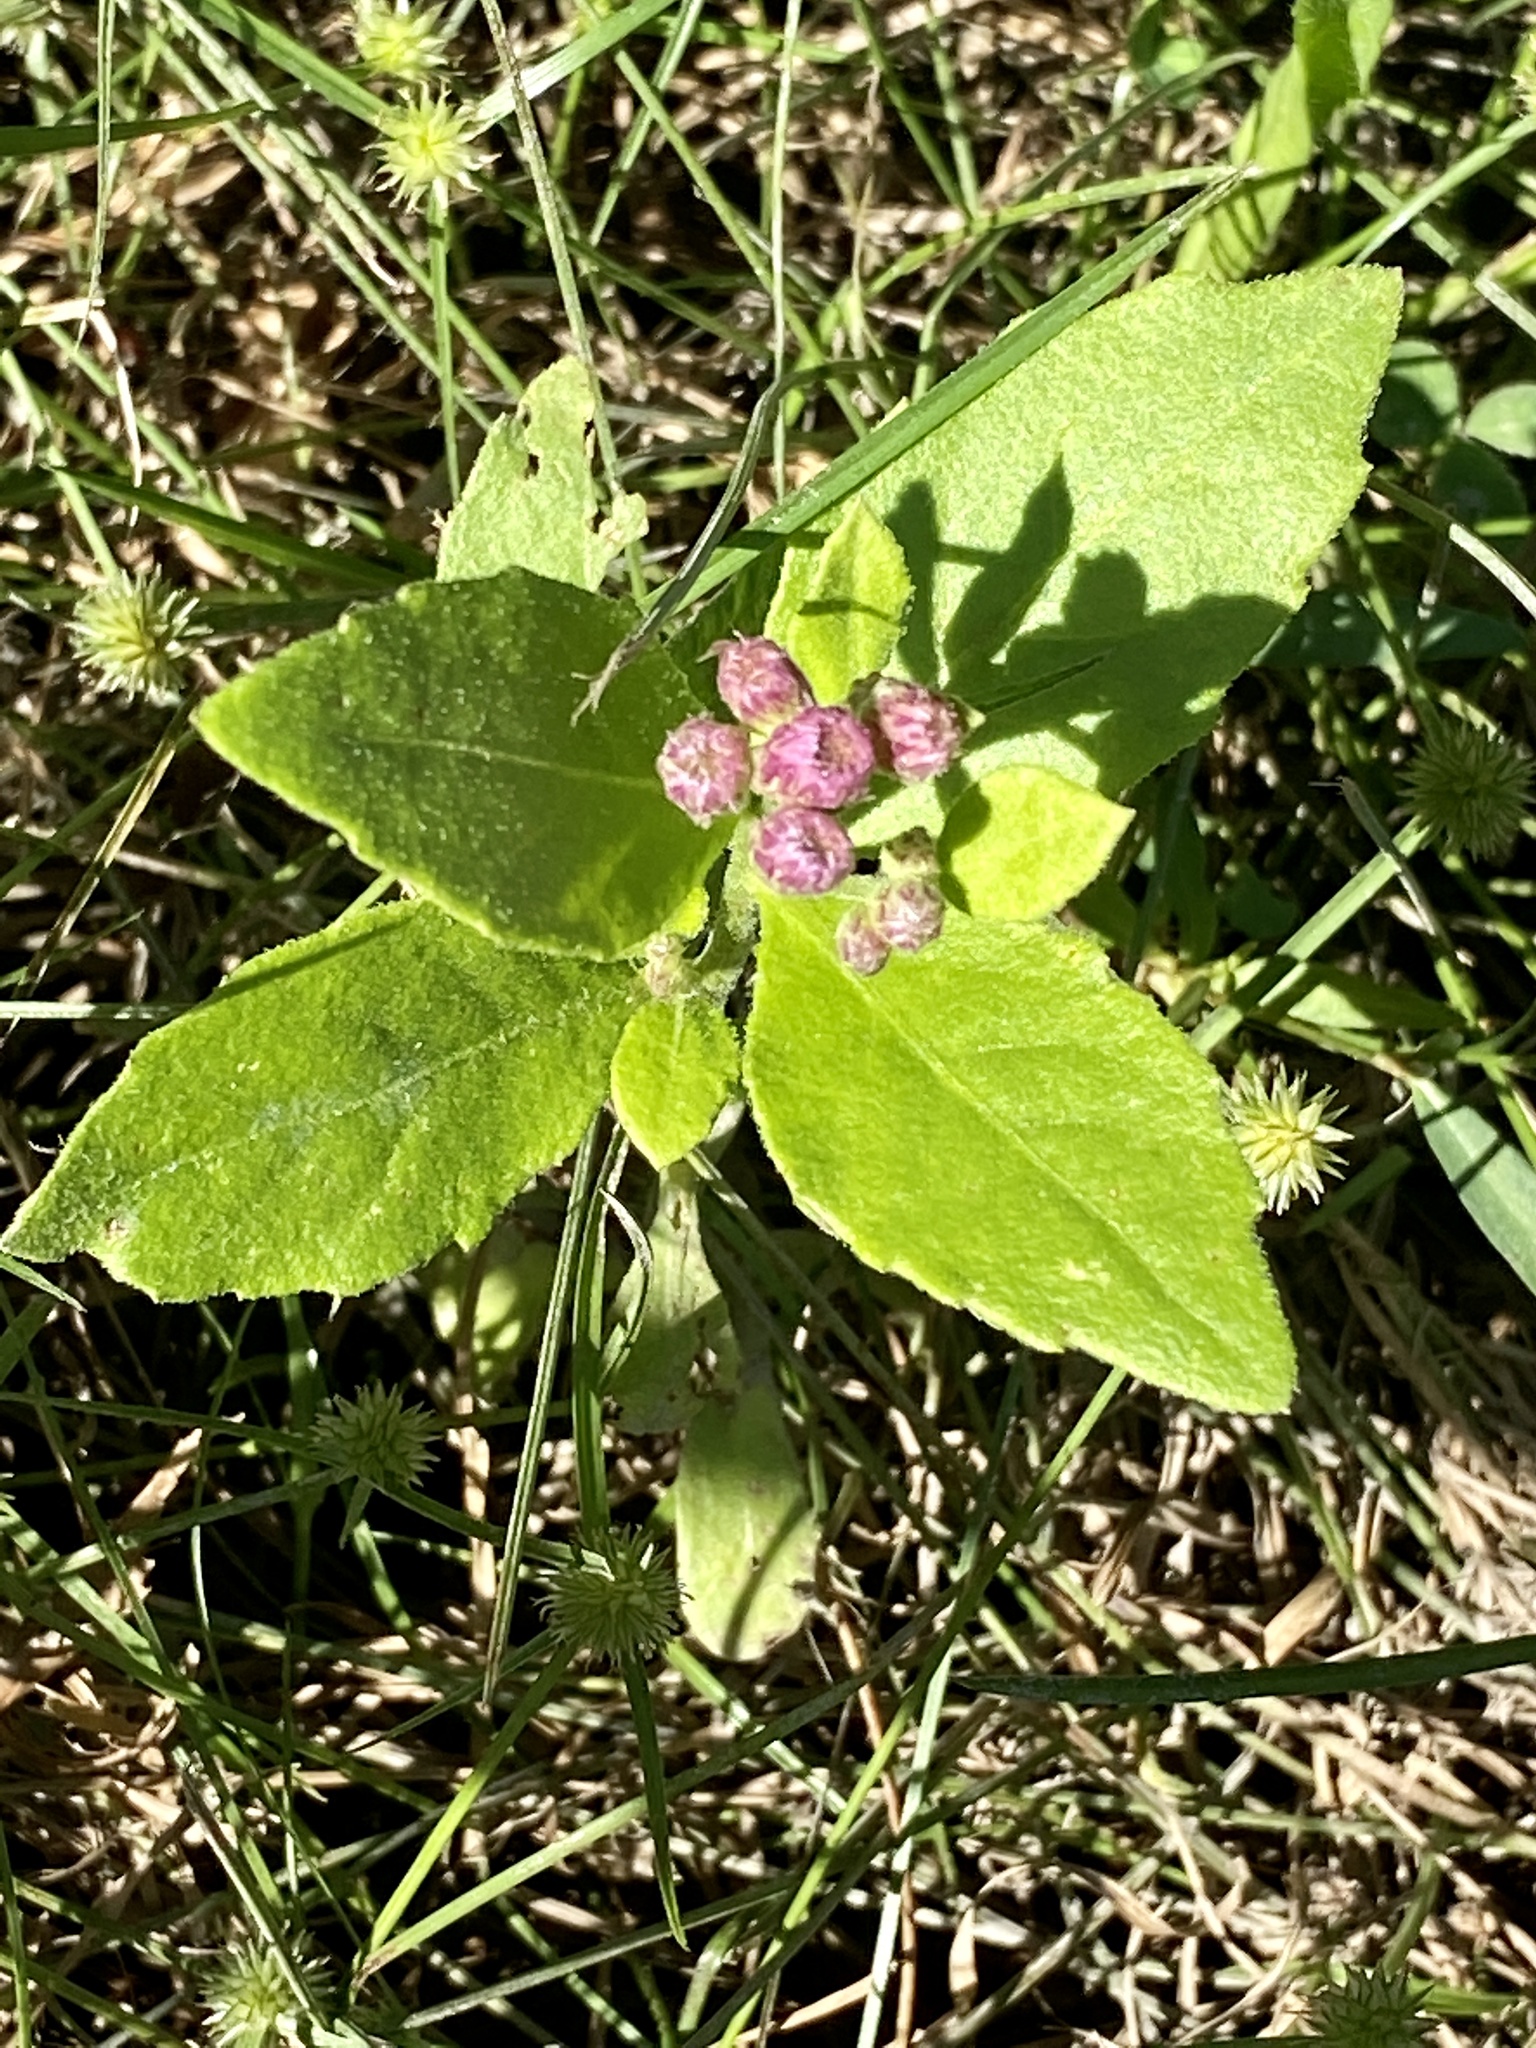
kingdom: Plantae
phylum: Tracheophyta
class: Magnoliopsida
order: Asterales
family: Asteraceae
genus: Pluchea
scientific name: Pluchea odorata
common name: Saltmarsh fleabane
